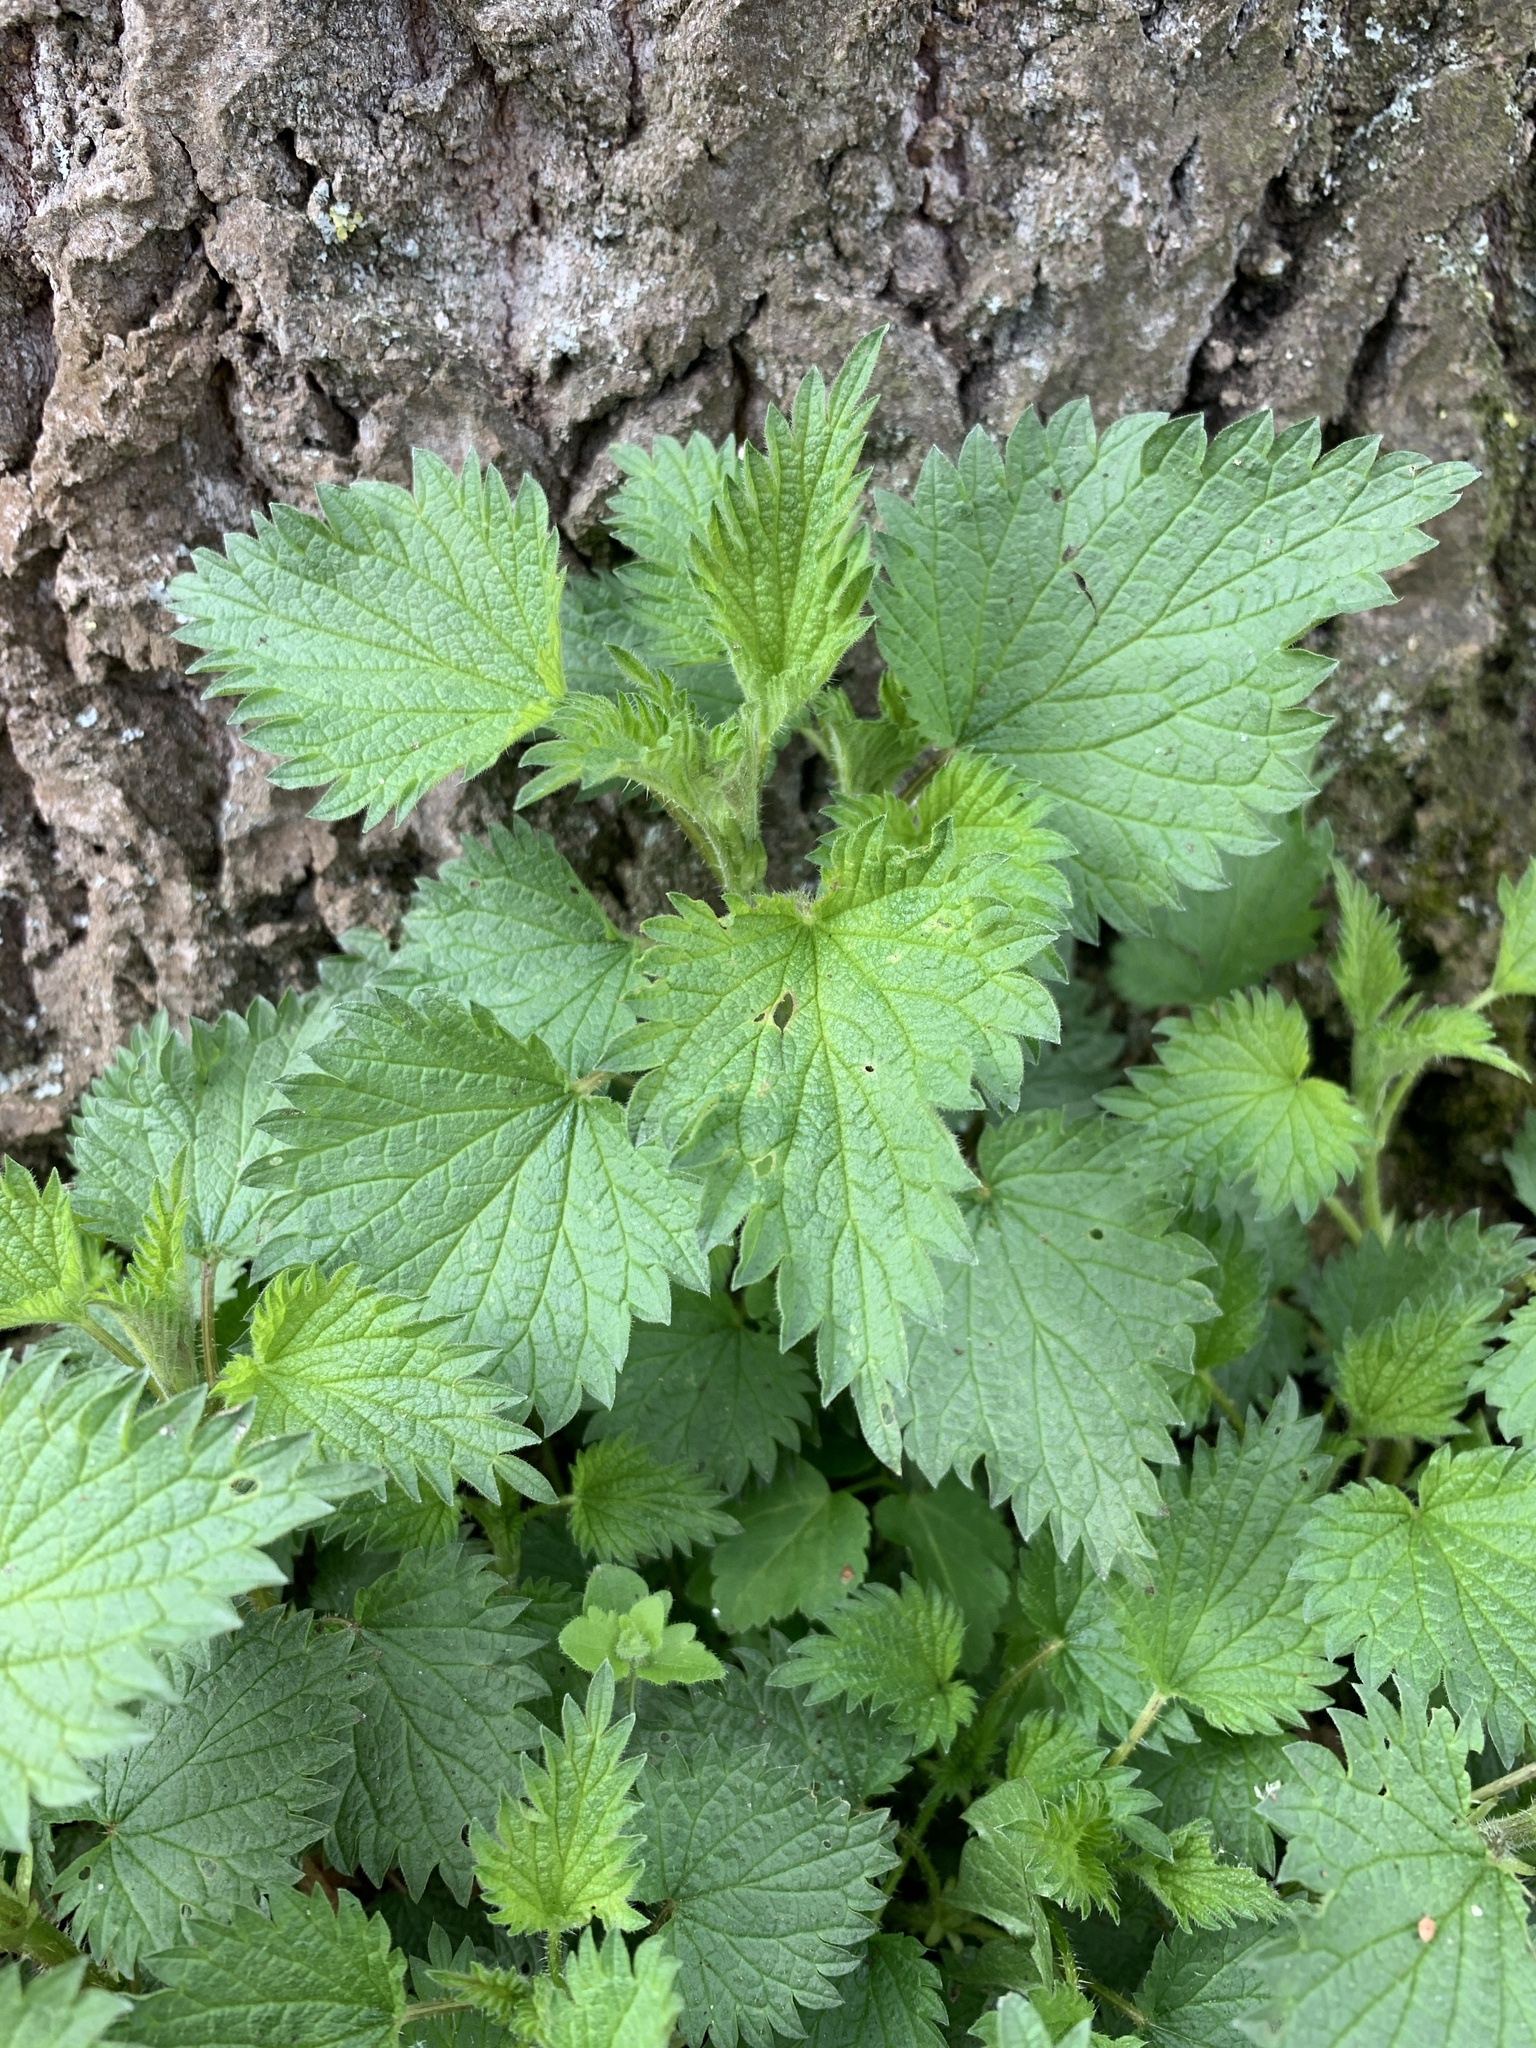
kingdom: Plantae
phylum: Tracheophyta
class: Magnoliopsida
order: Rosales
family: Urticaceae
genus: Urtica
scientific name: Urtica dioica
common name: Common nettle
